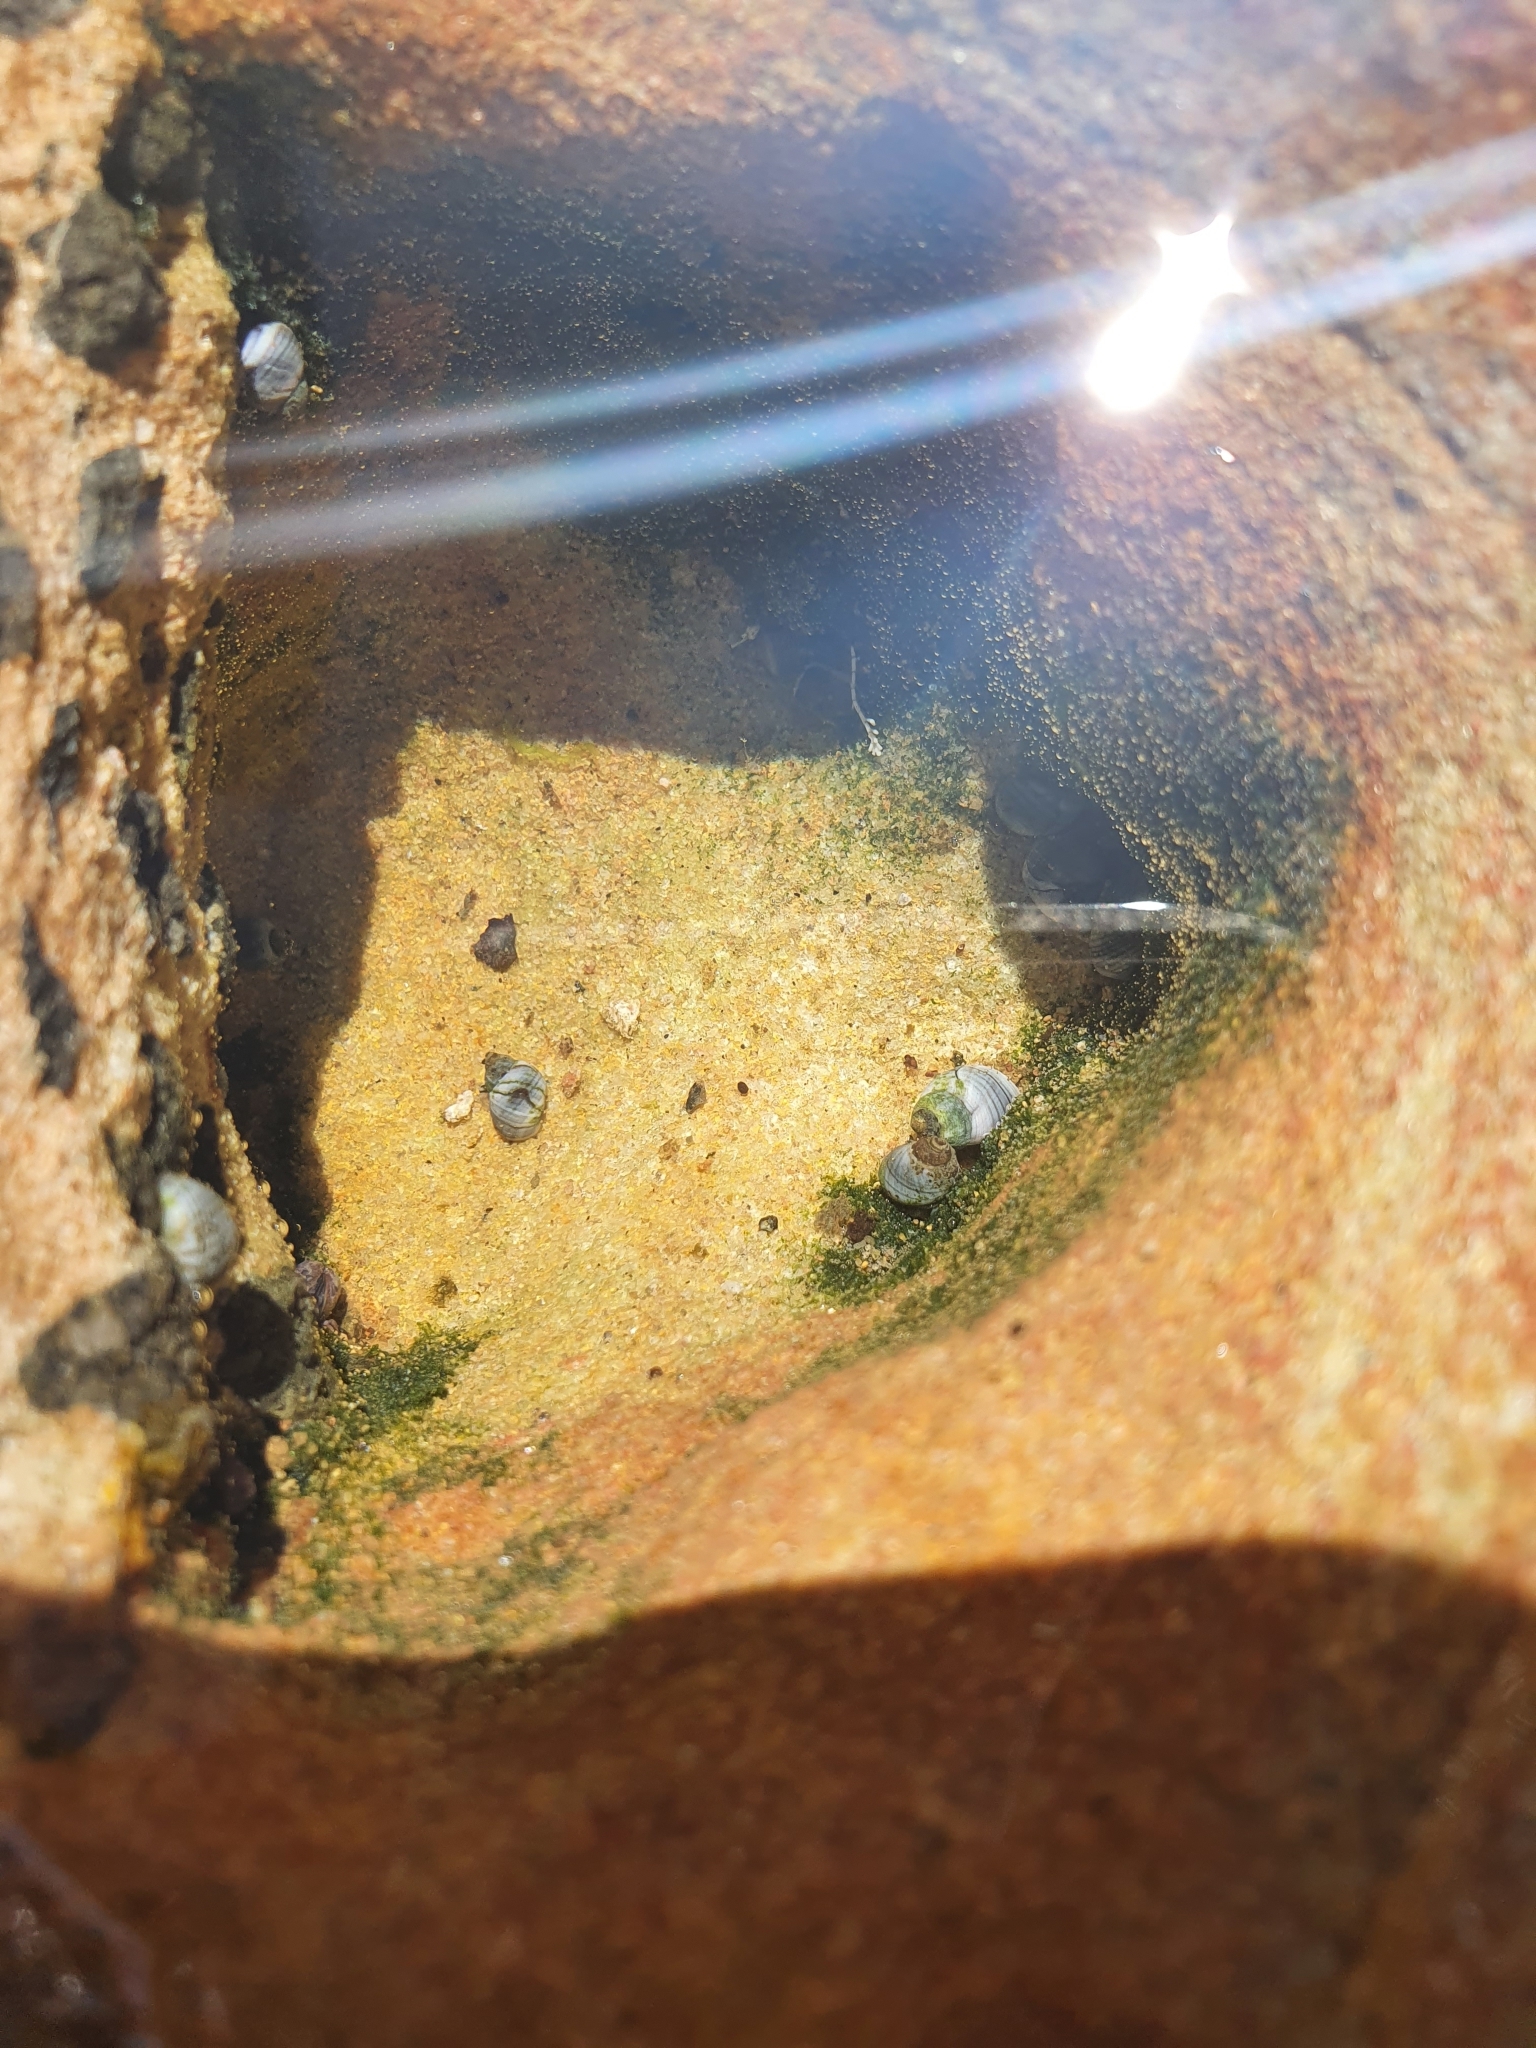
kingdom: Animalia
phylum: Mollusca
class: Gastropoda
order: Littorinimorpha
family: Littorinidae
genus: Austrolittorina
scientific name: Austrolittorina unifasciata
